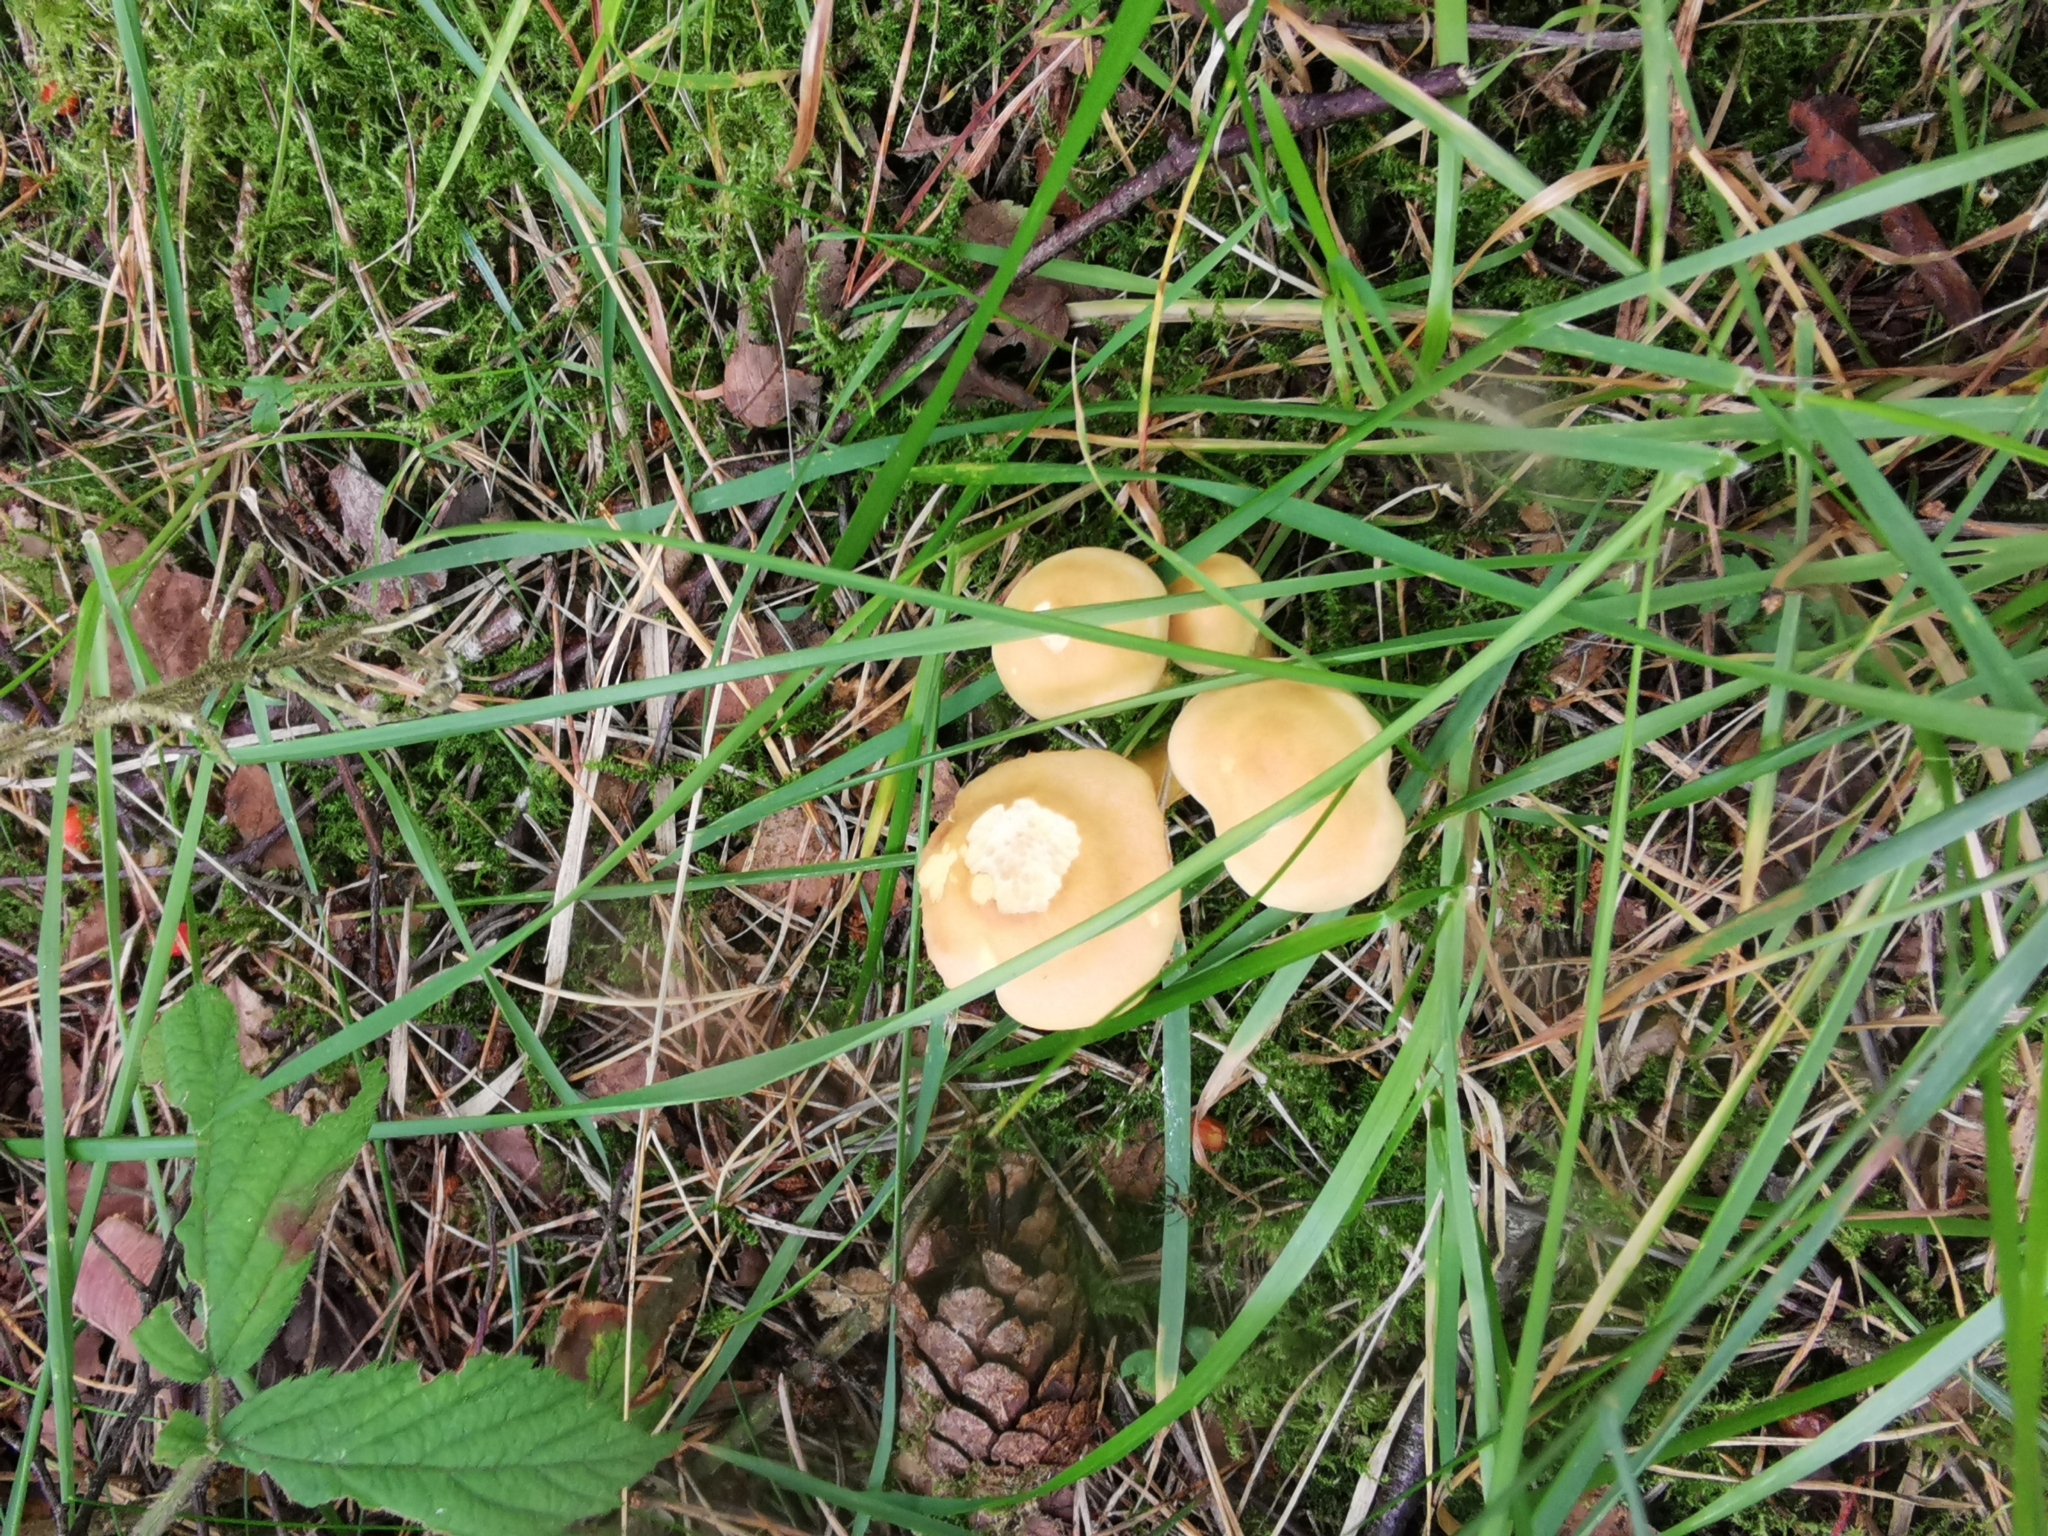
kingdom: Fungi
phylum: Basidiomycota
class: Agaricomycetes
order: Agaricales
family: Strophariaceae
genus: Hypholoma
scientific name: Hypholoma fasciculare
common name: Sulphur tuft
